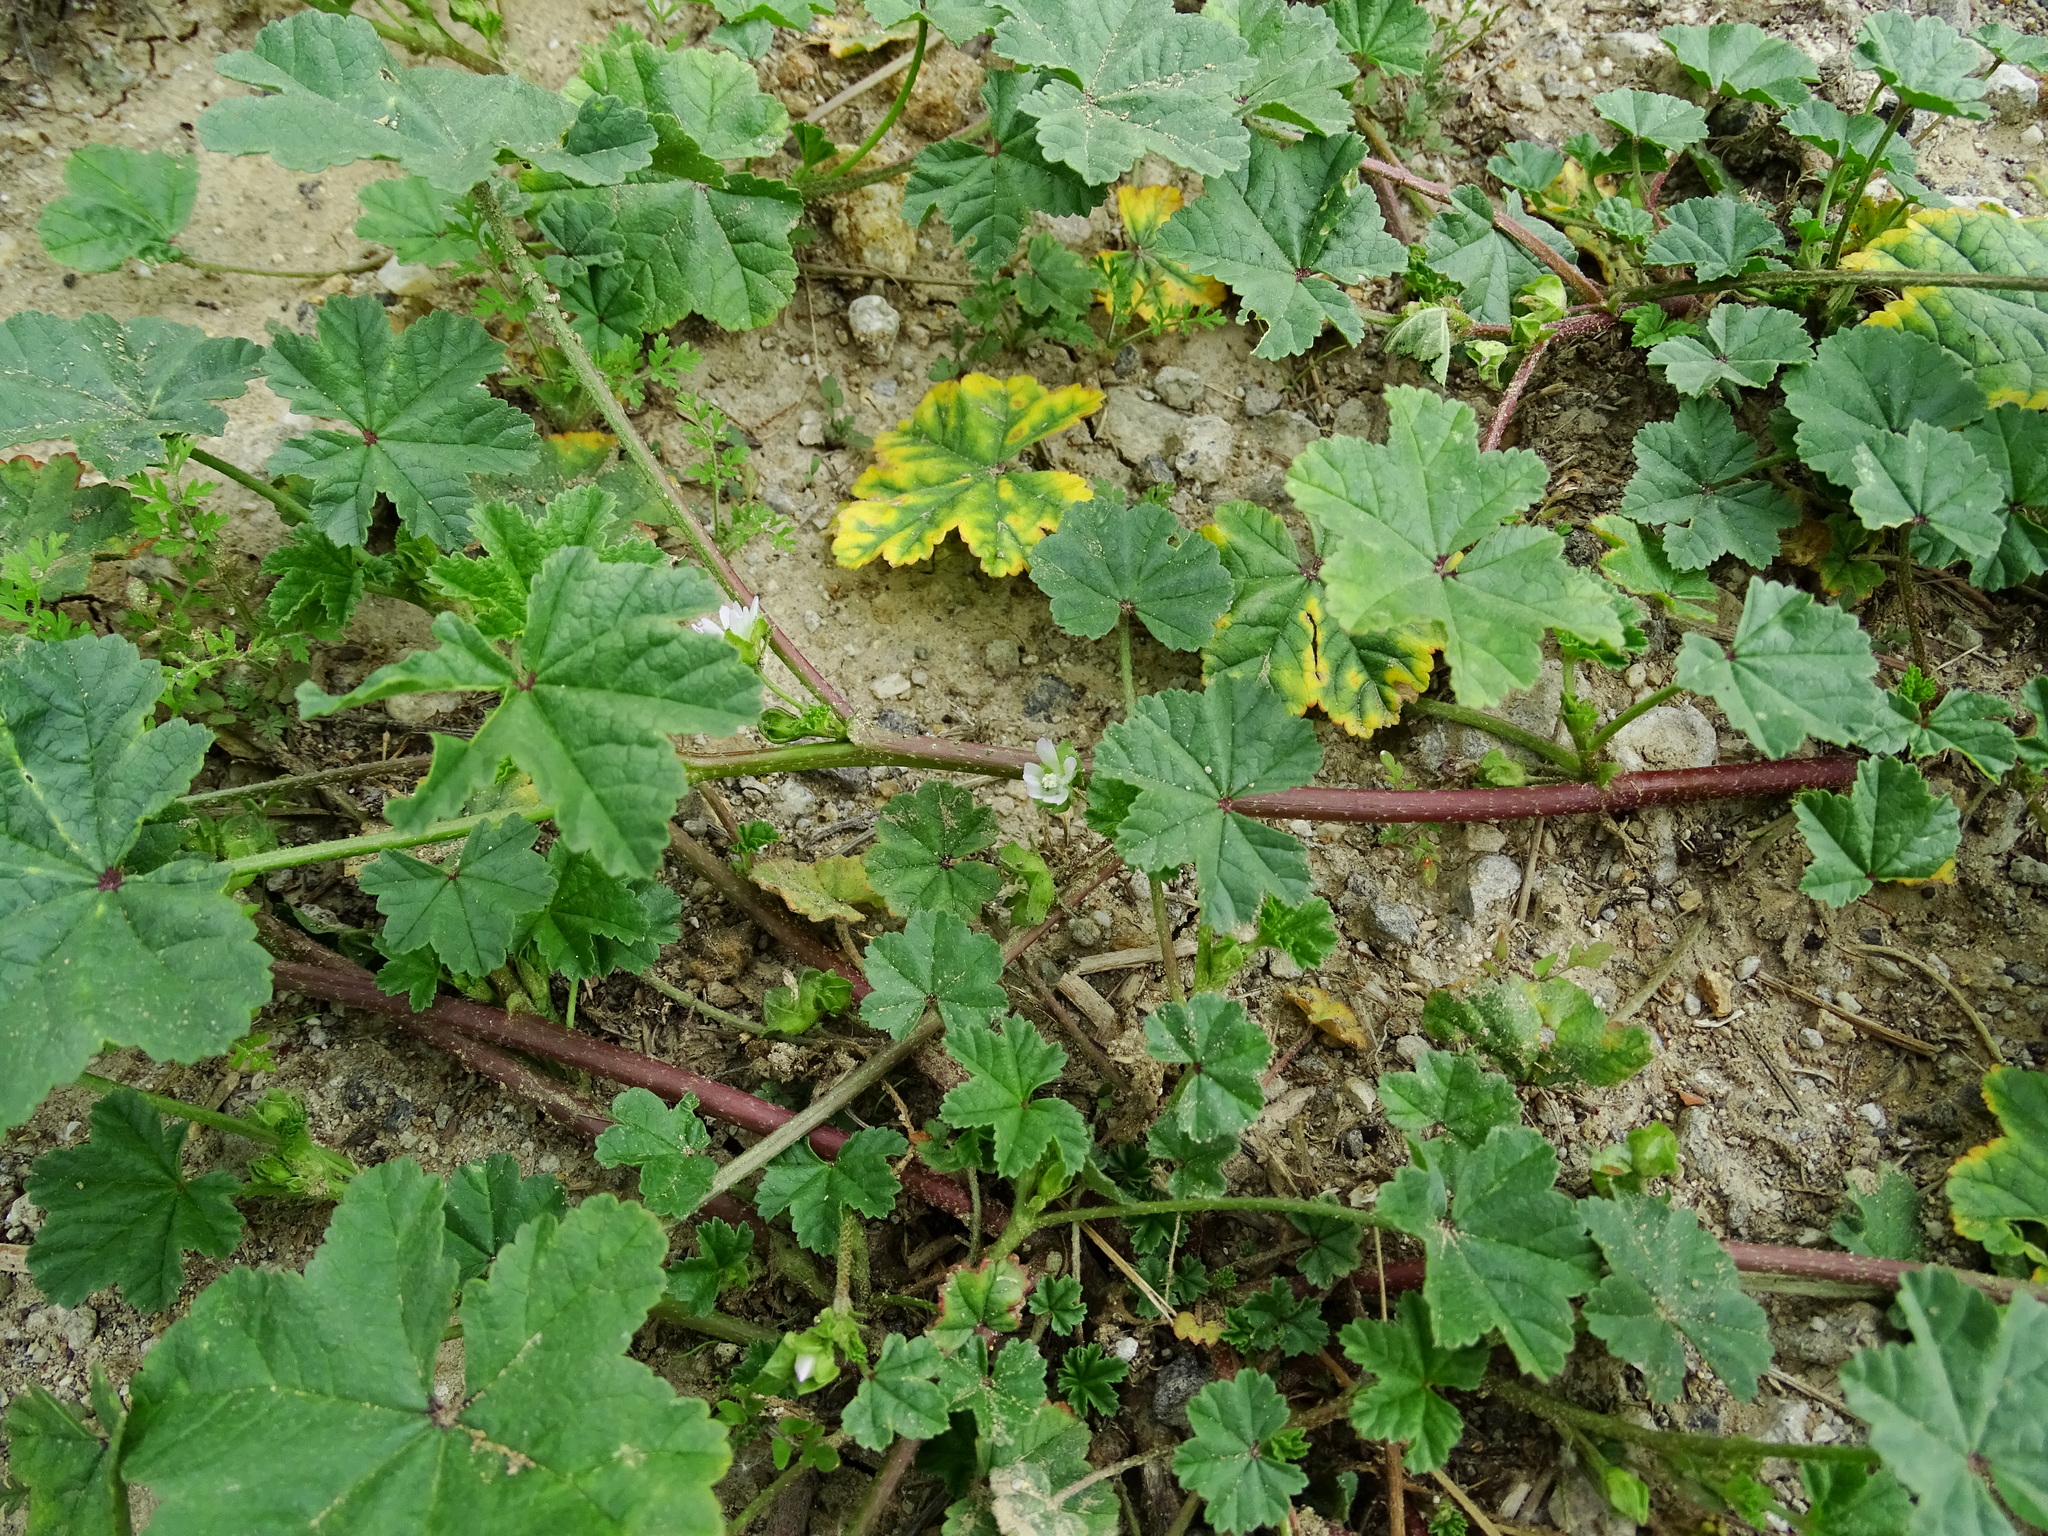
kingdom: Plantae
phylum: Tracheophyta
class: Magnoliopsida
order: Malvales
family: Malvaceae
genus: Malva
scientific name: Malva parviflora
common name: Least mallow
